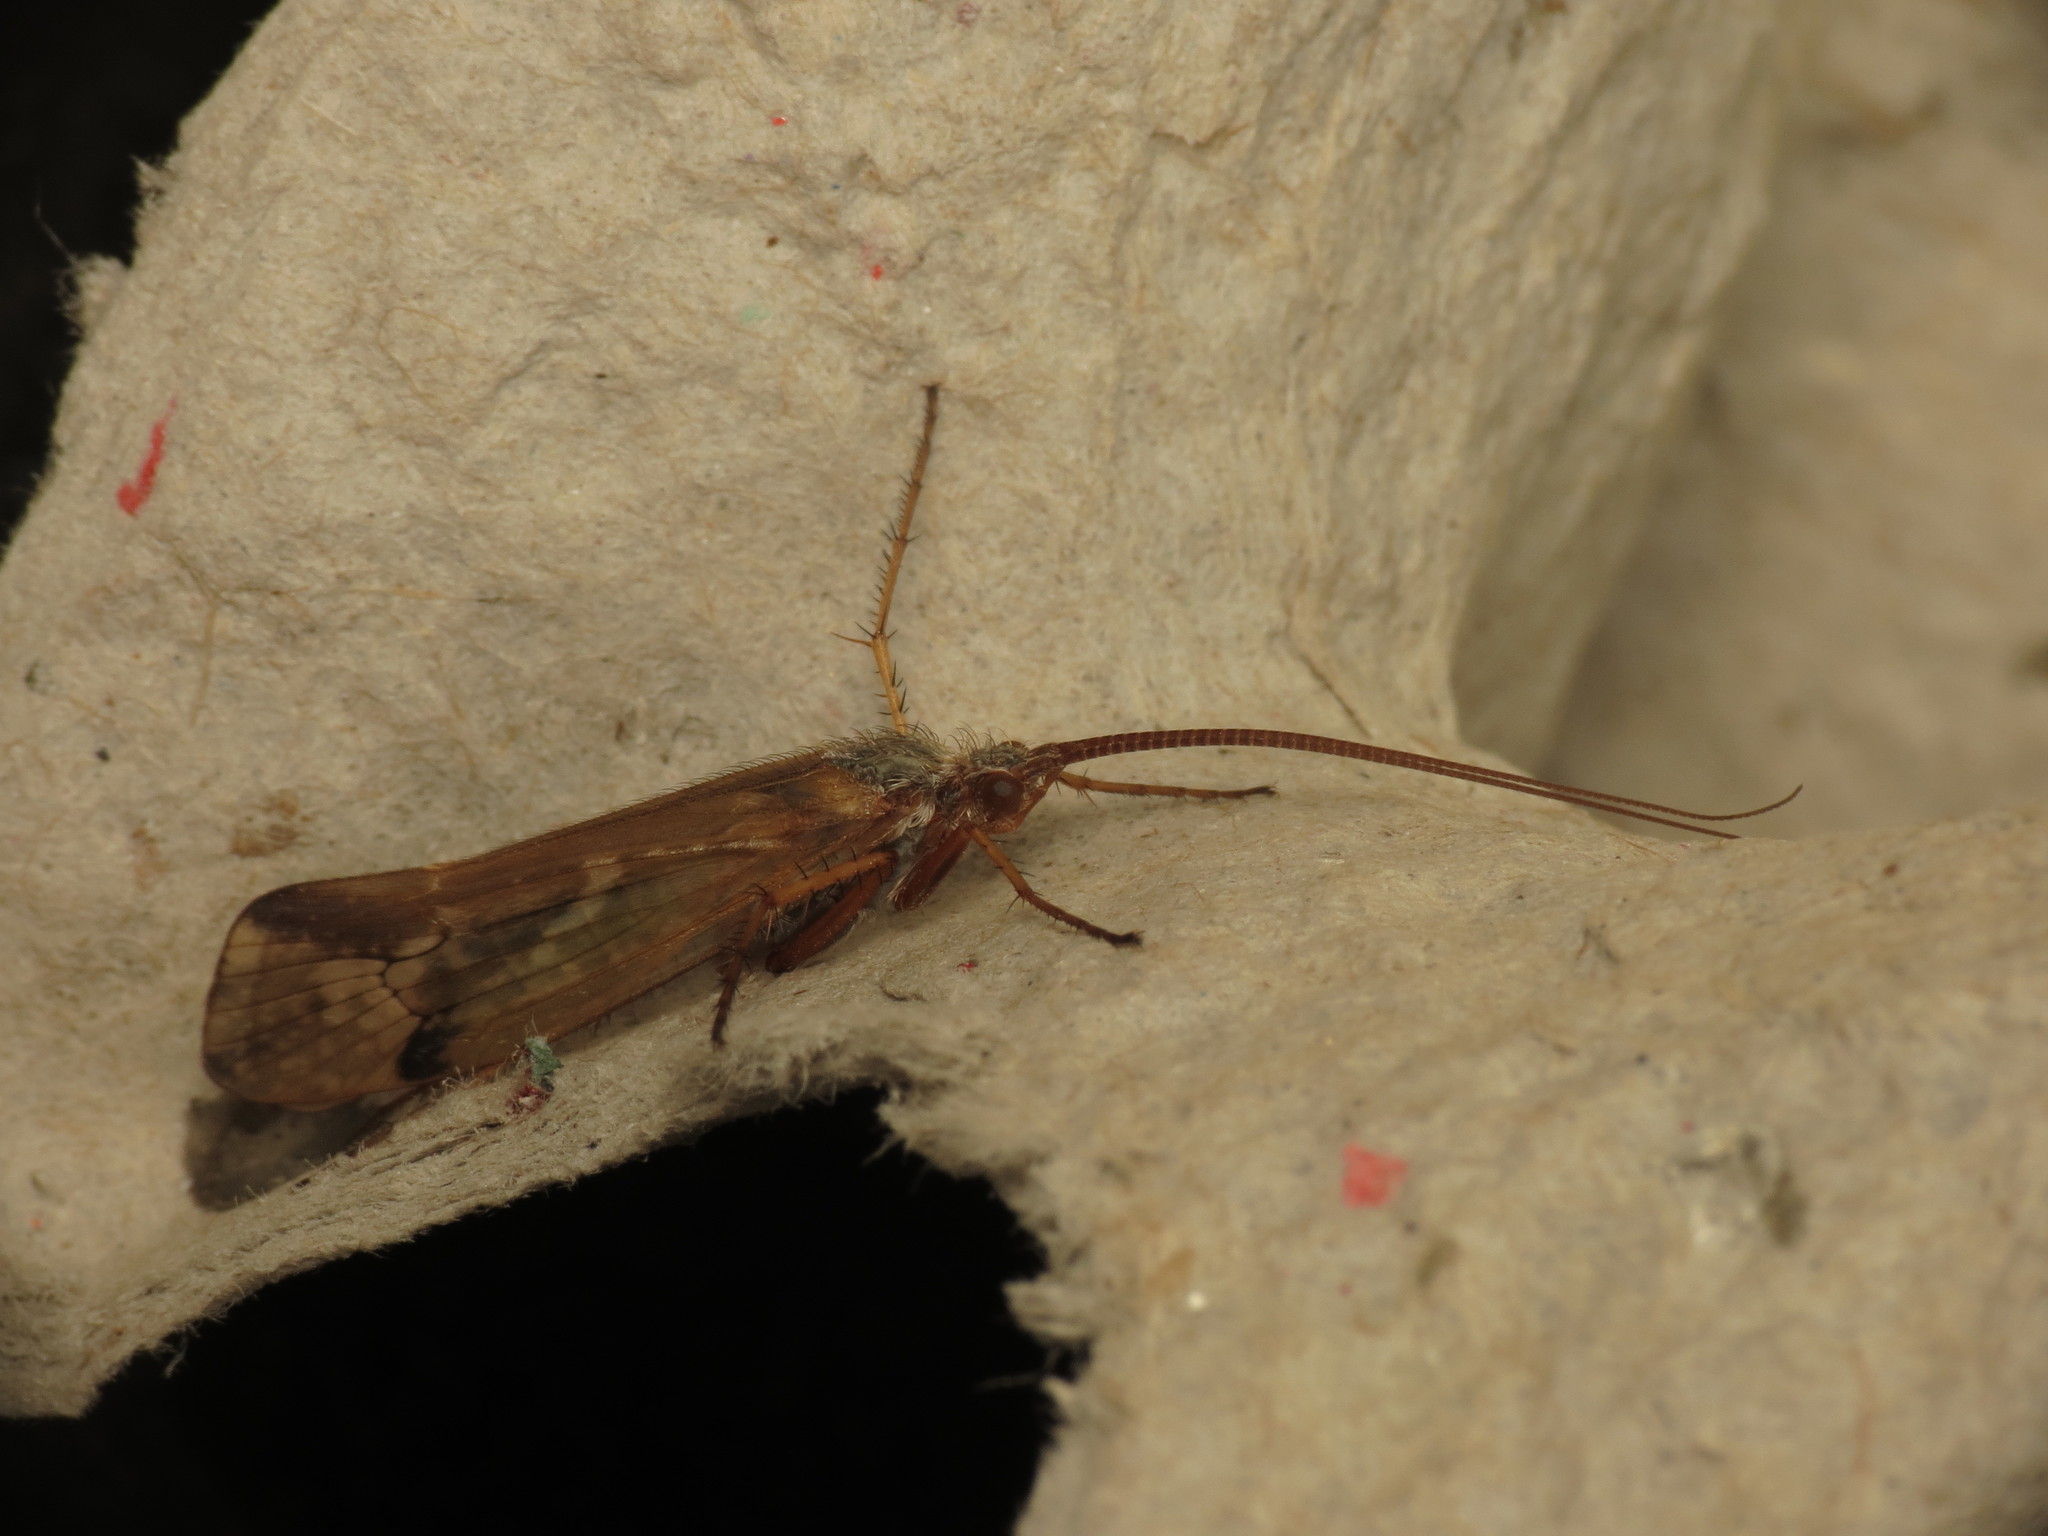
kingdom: Animalia
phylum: Arthropoda
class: Insecta
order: Trichoptera
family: Limnephilidae
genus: Limnephilus
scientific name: Limnephilus binotatus
